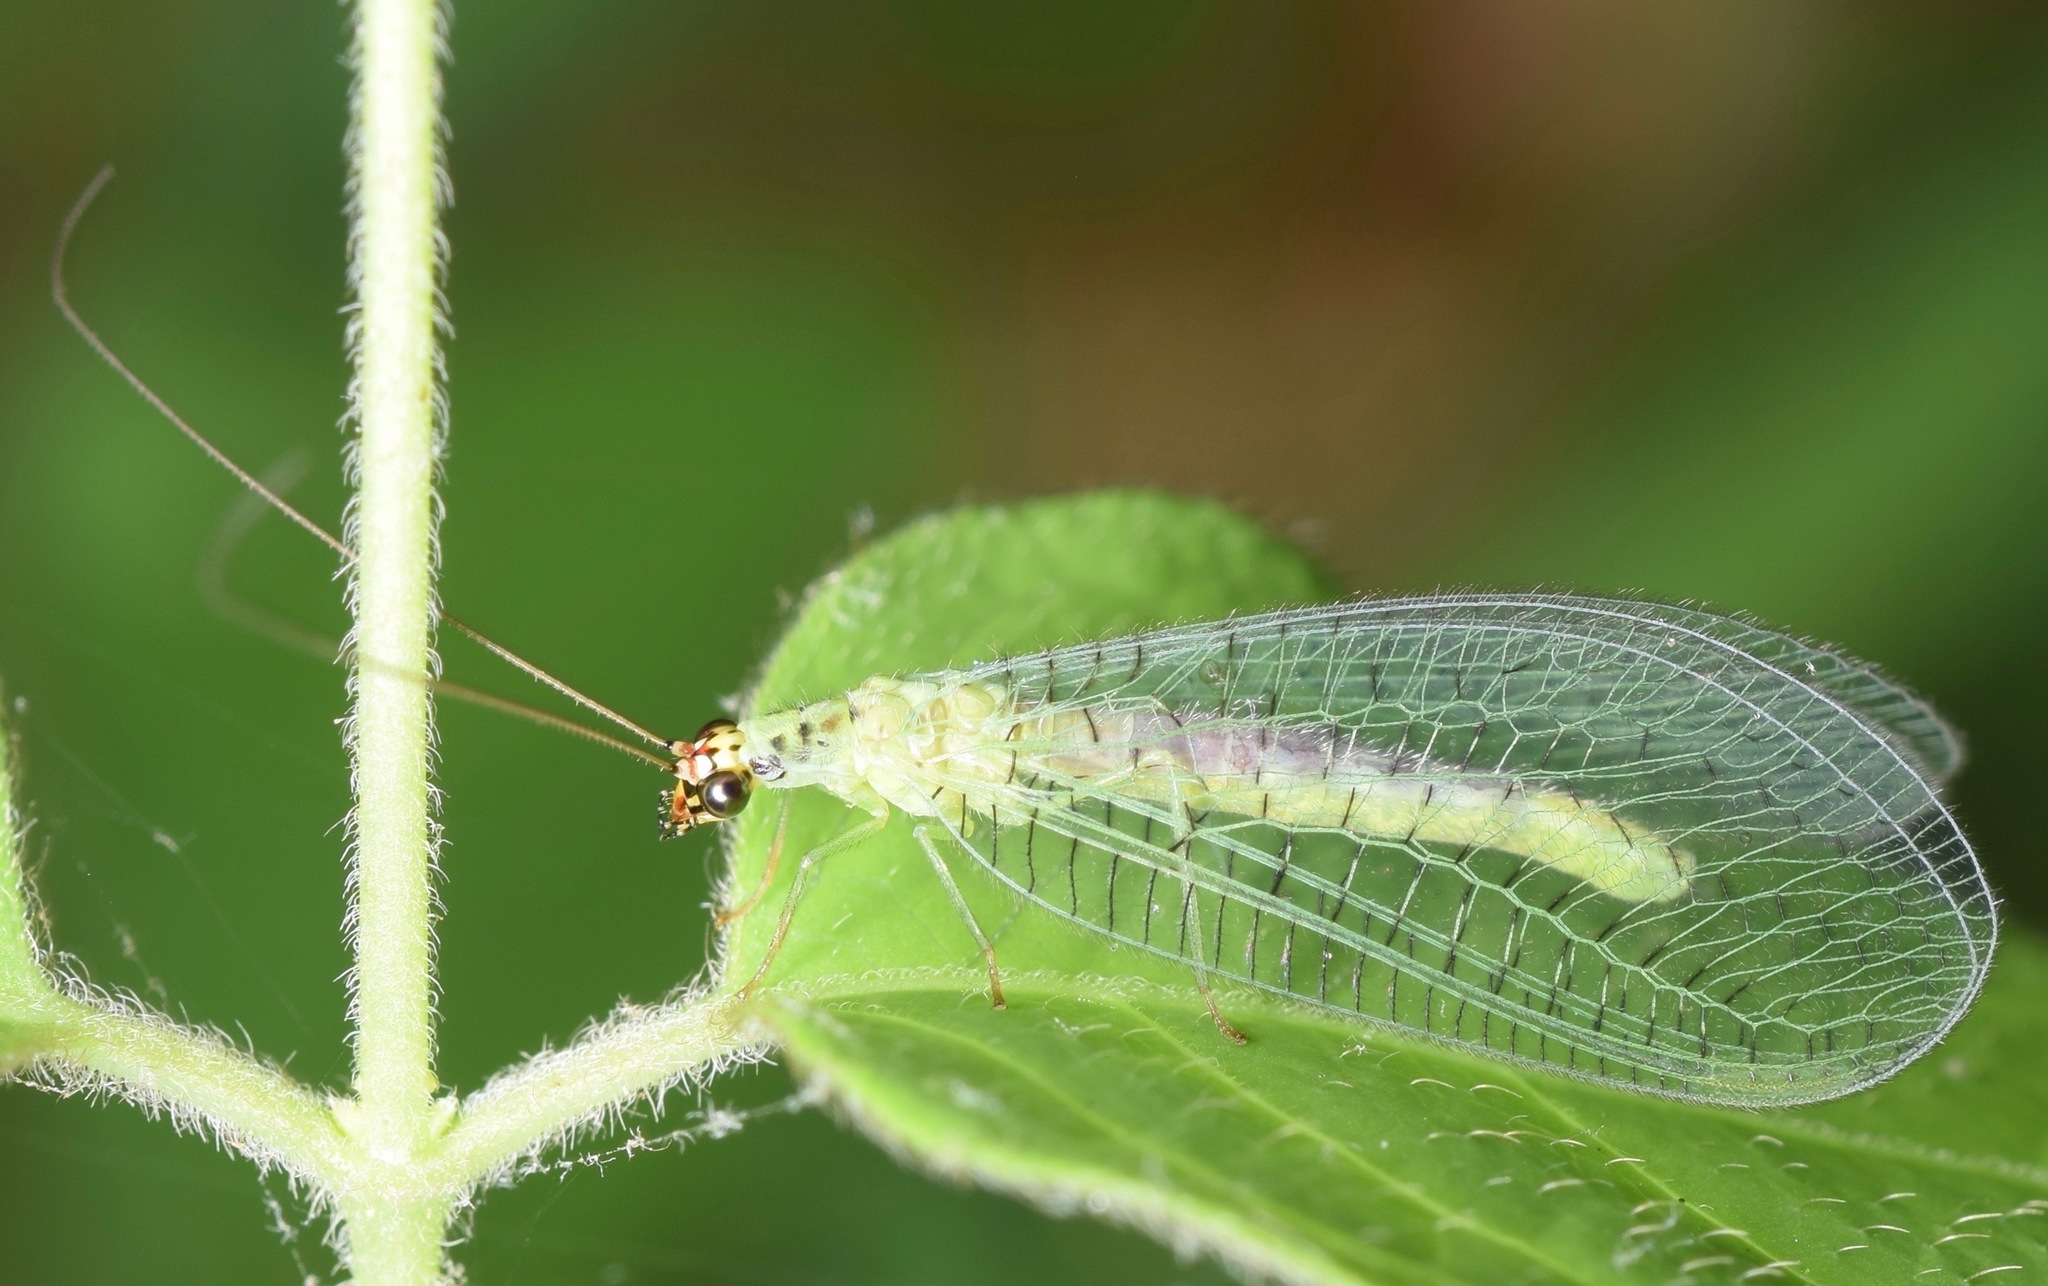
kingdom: Animalia
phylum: Arthropoda
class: Insecta
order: Neuroptera
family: Chrysopidae
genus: Chrysopa
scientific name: Chrysopa oculata
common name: Golden-eyed lacewing
